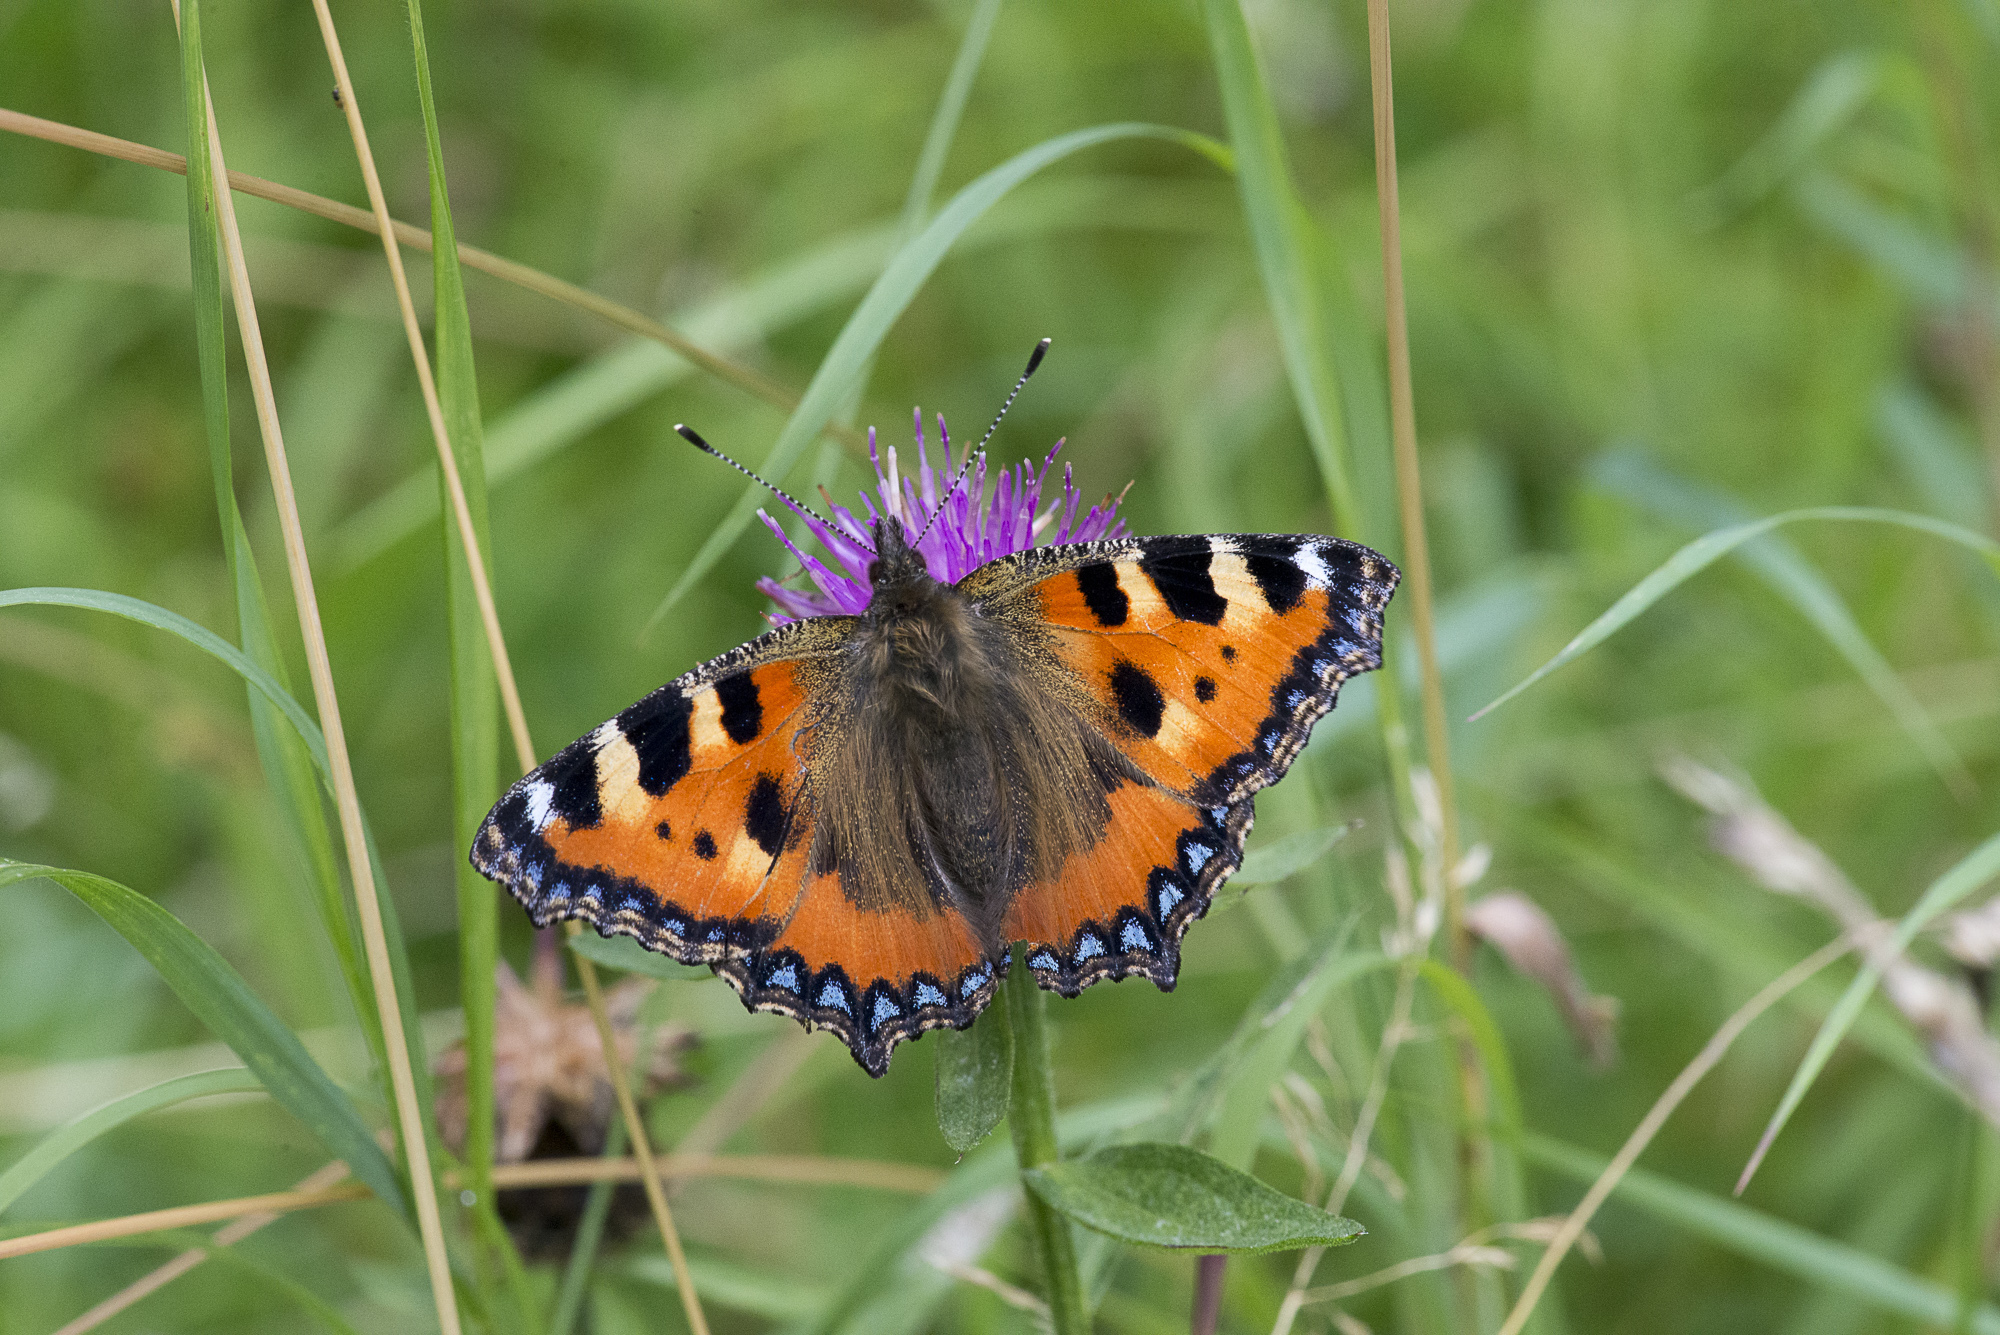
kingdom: Animalia
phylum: Arthropoda
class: Insecta
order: Lepidoptera
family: Nymphalidae
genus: Aglais
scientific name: Aglais urticae
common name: Small tortoiseshell
